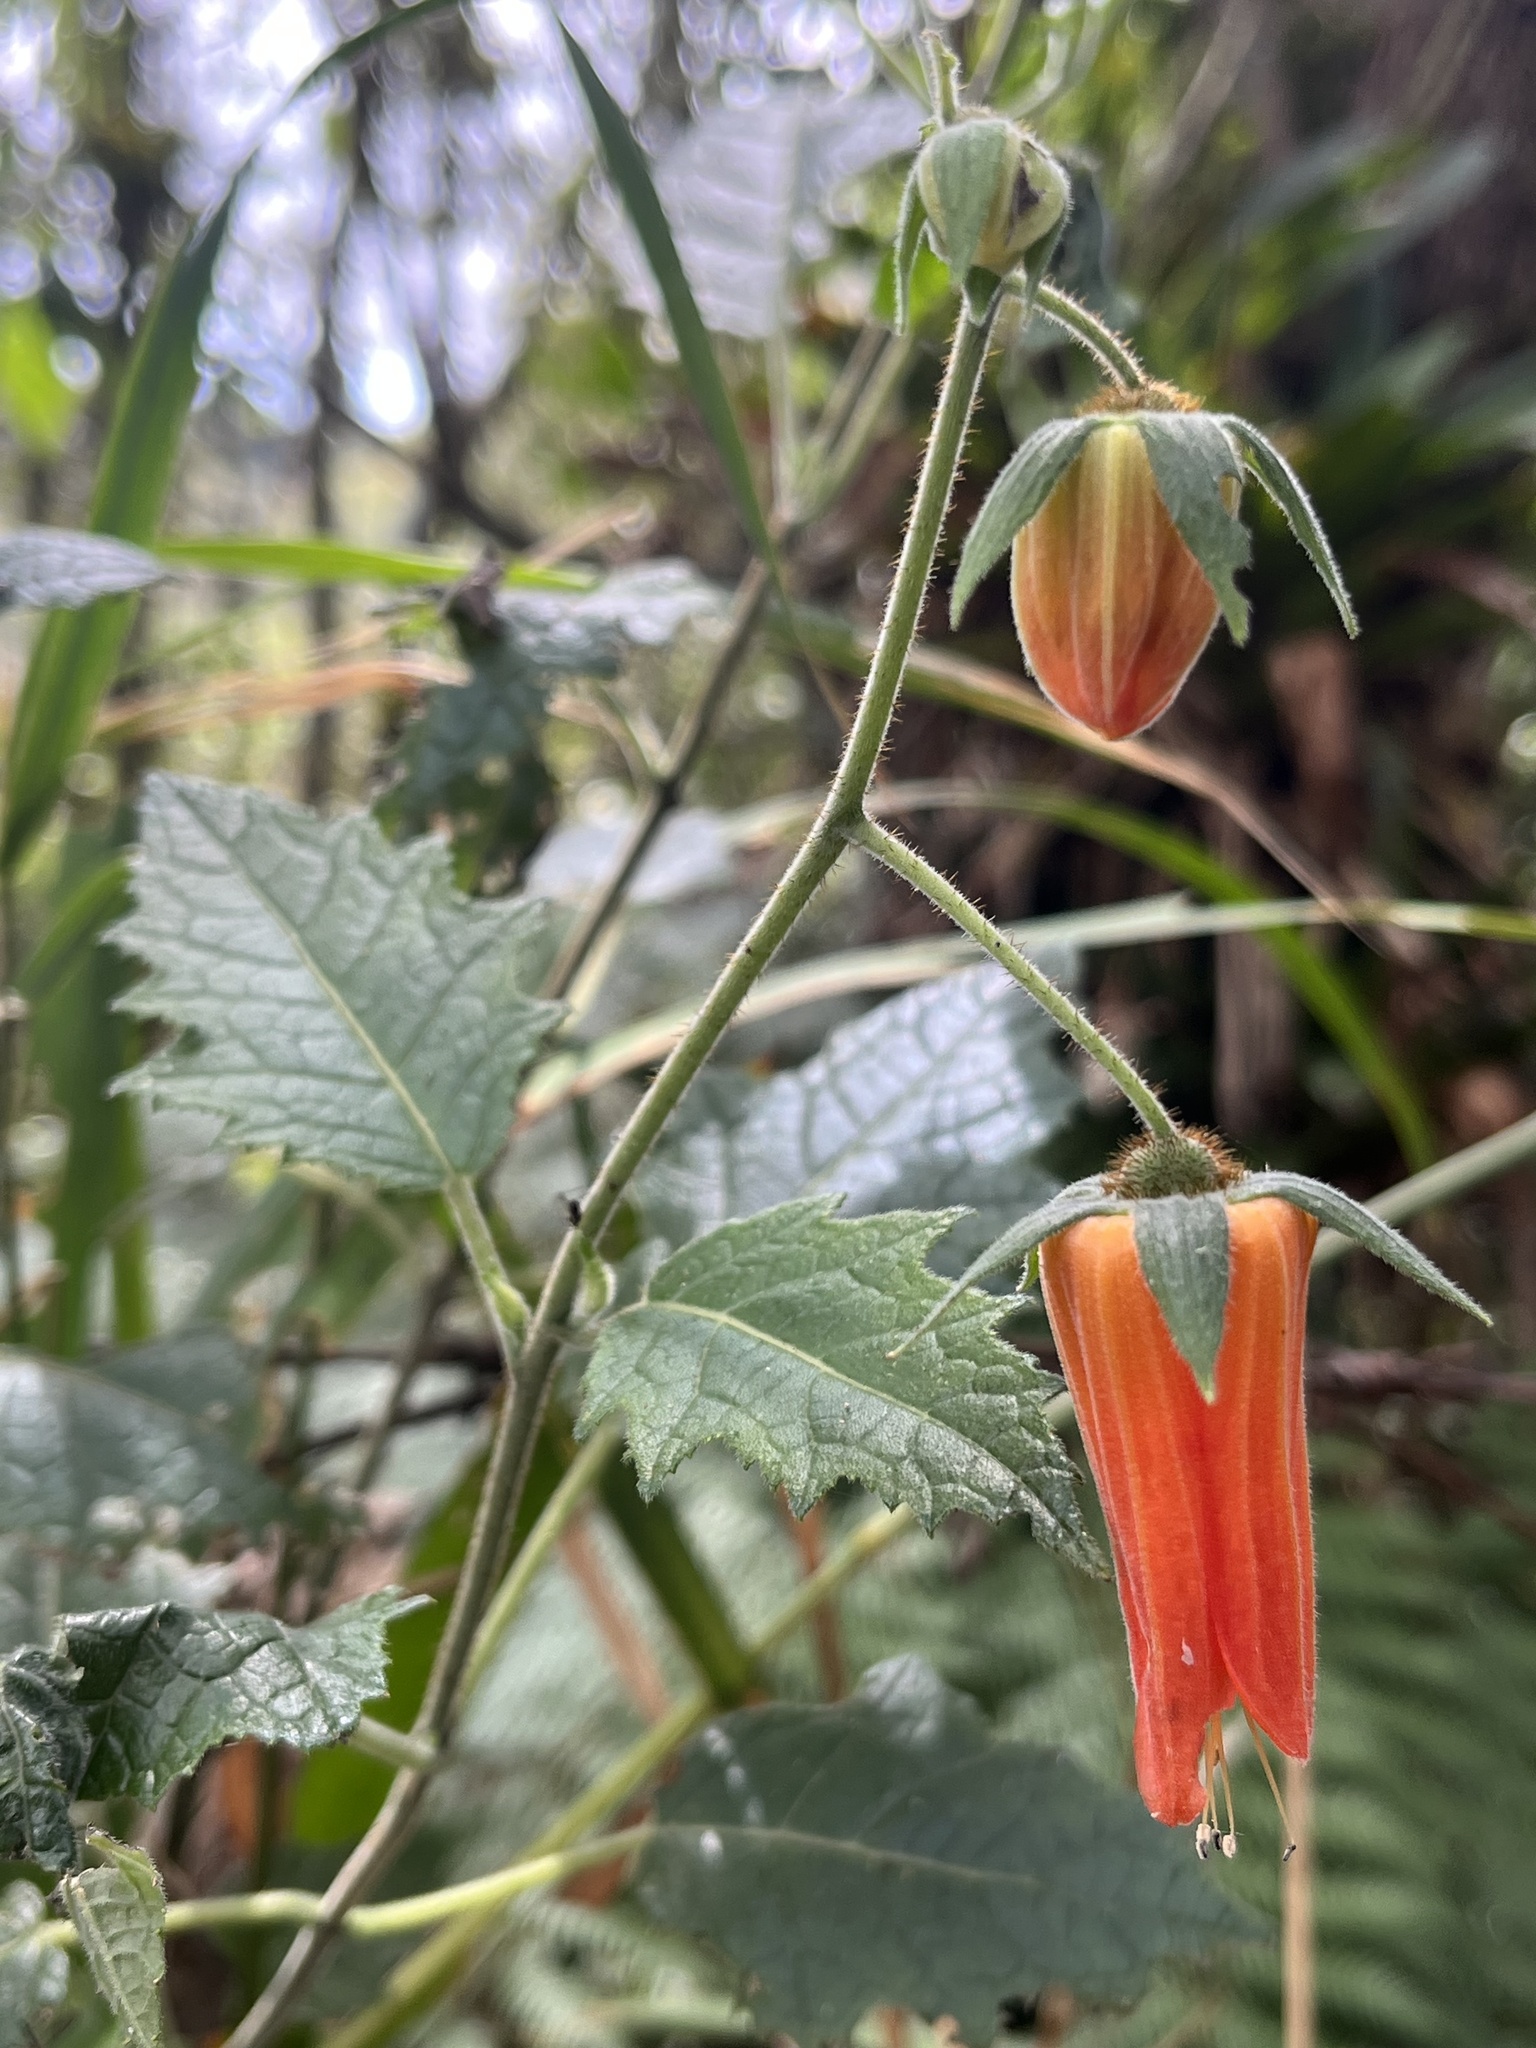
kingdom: Plantae
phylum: Tracheophyta
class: Magnoliopsida
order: Cornales
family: Loasaceae
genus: Nasa
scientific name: Nasa campaniflora
